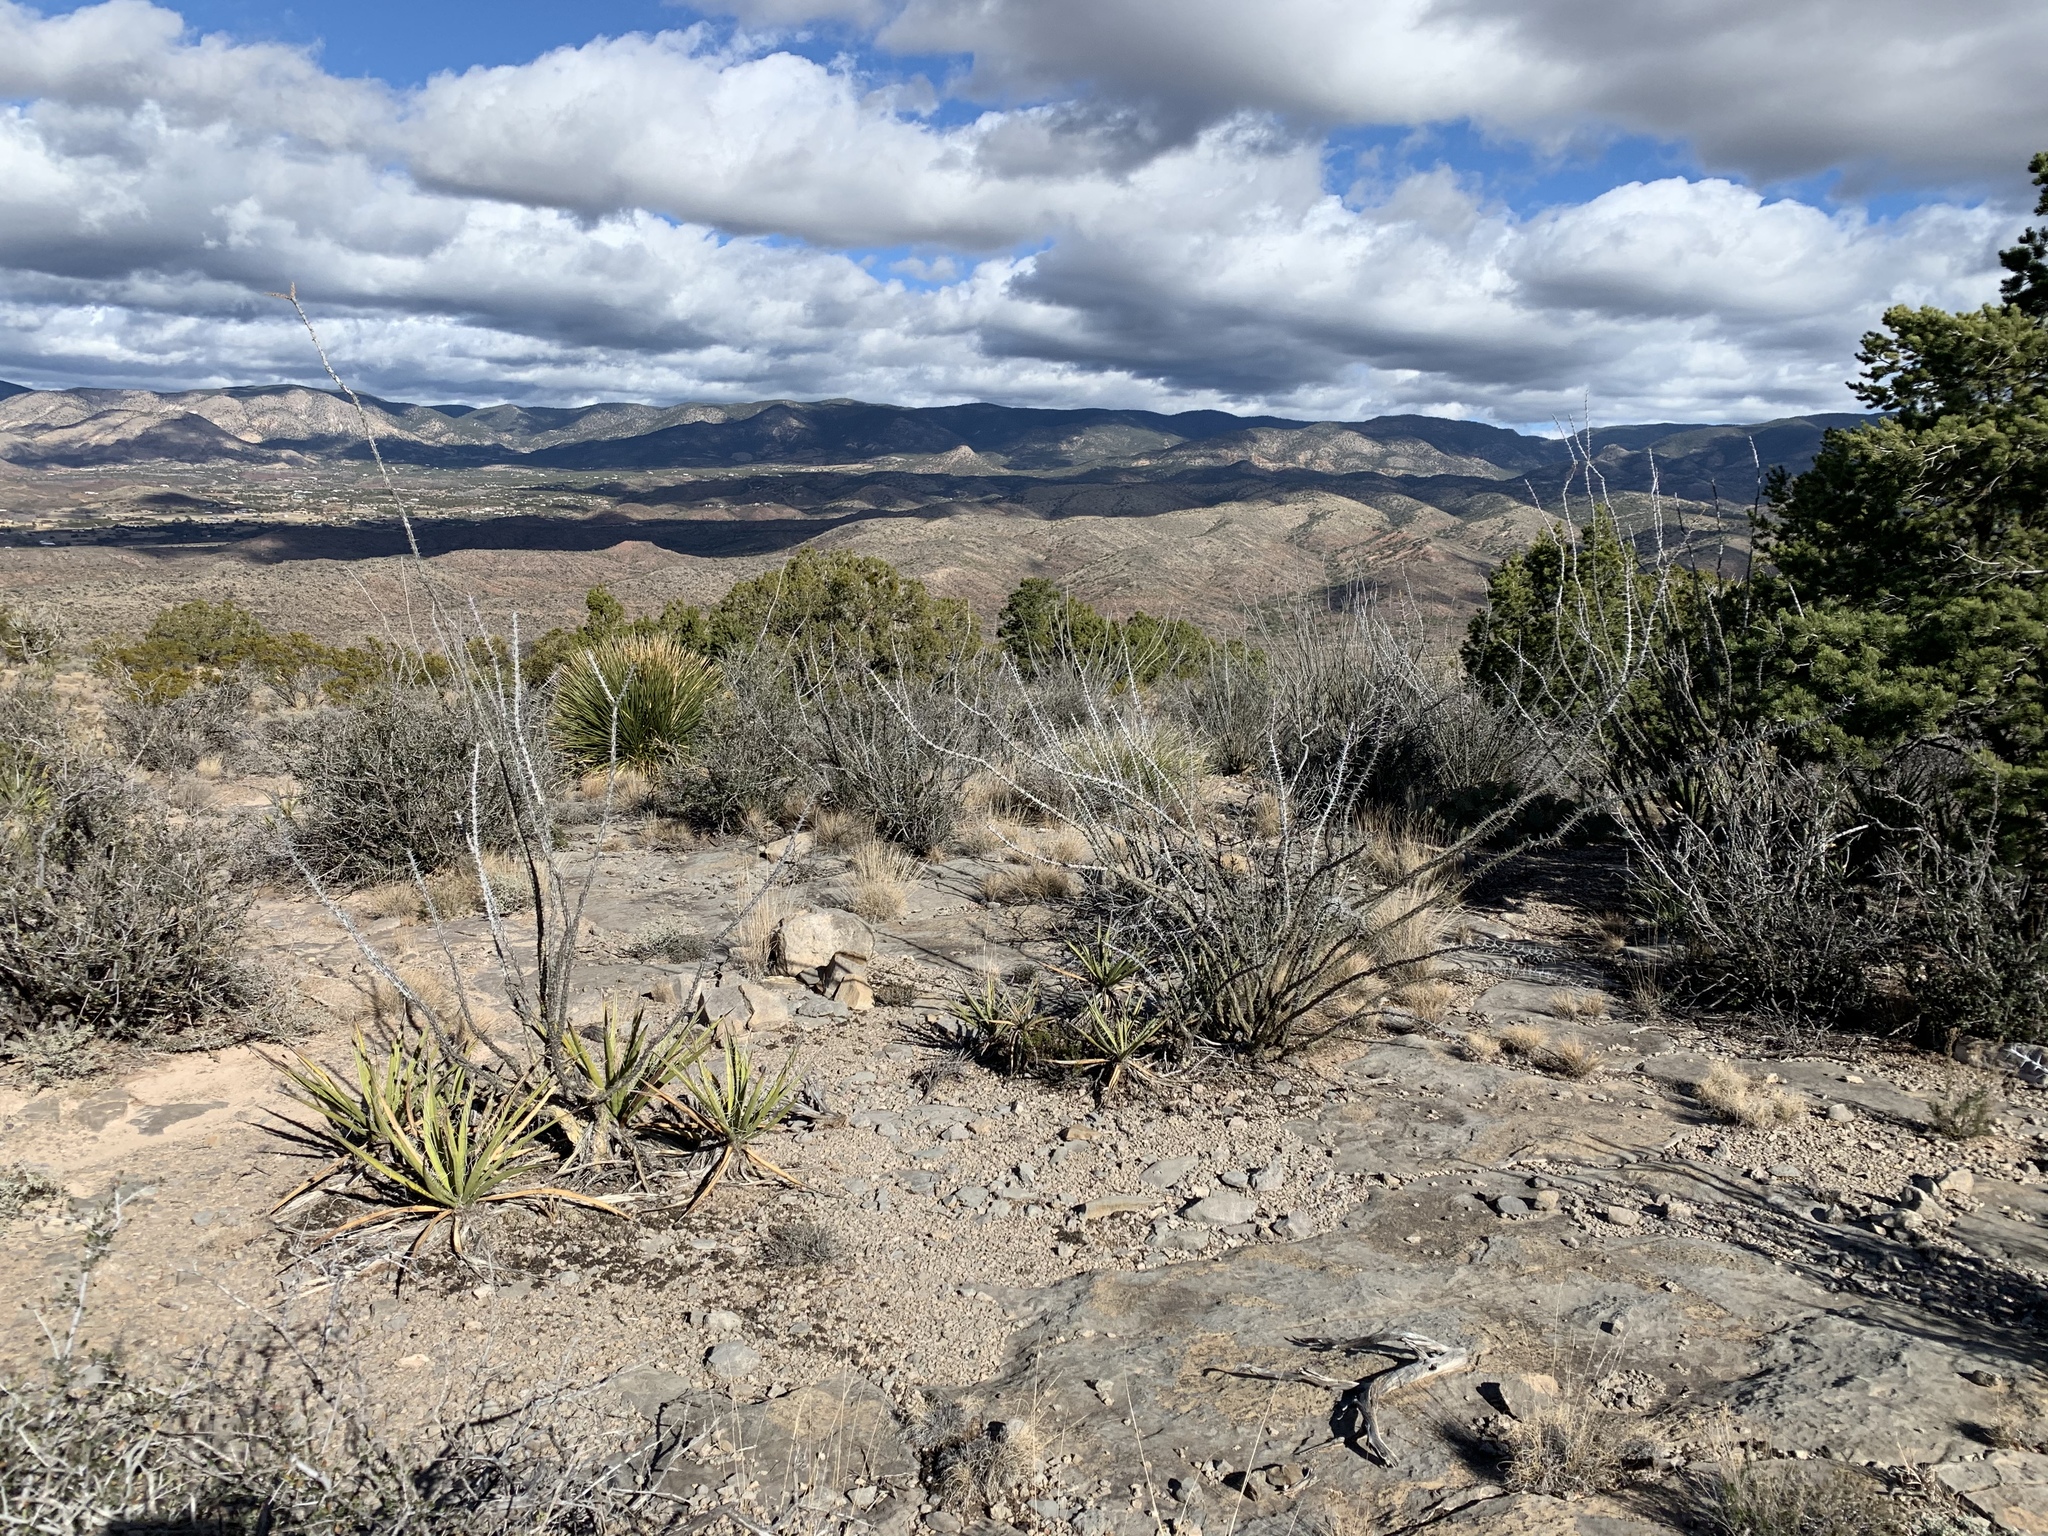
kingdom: Plantae
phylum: Tracheophyta
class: Magnoliopsida
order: Ericales
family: Fouquieriaceae
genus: Fouquieria
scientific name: Fouquieria splendens
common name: Vine-cactus
